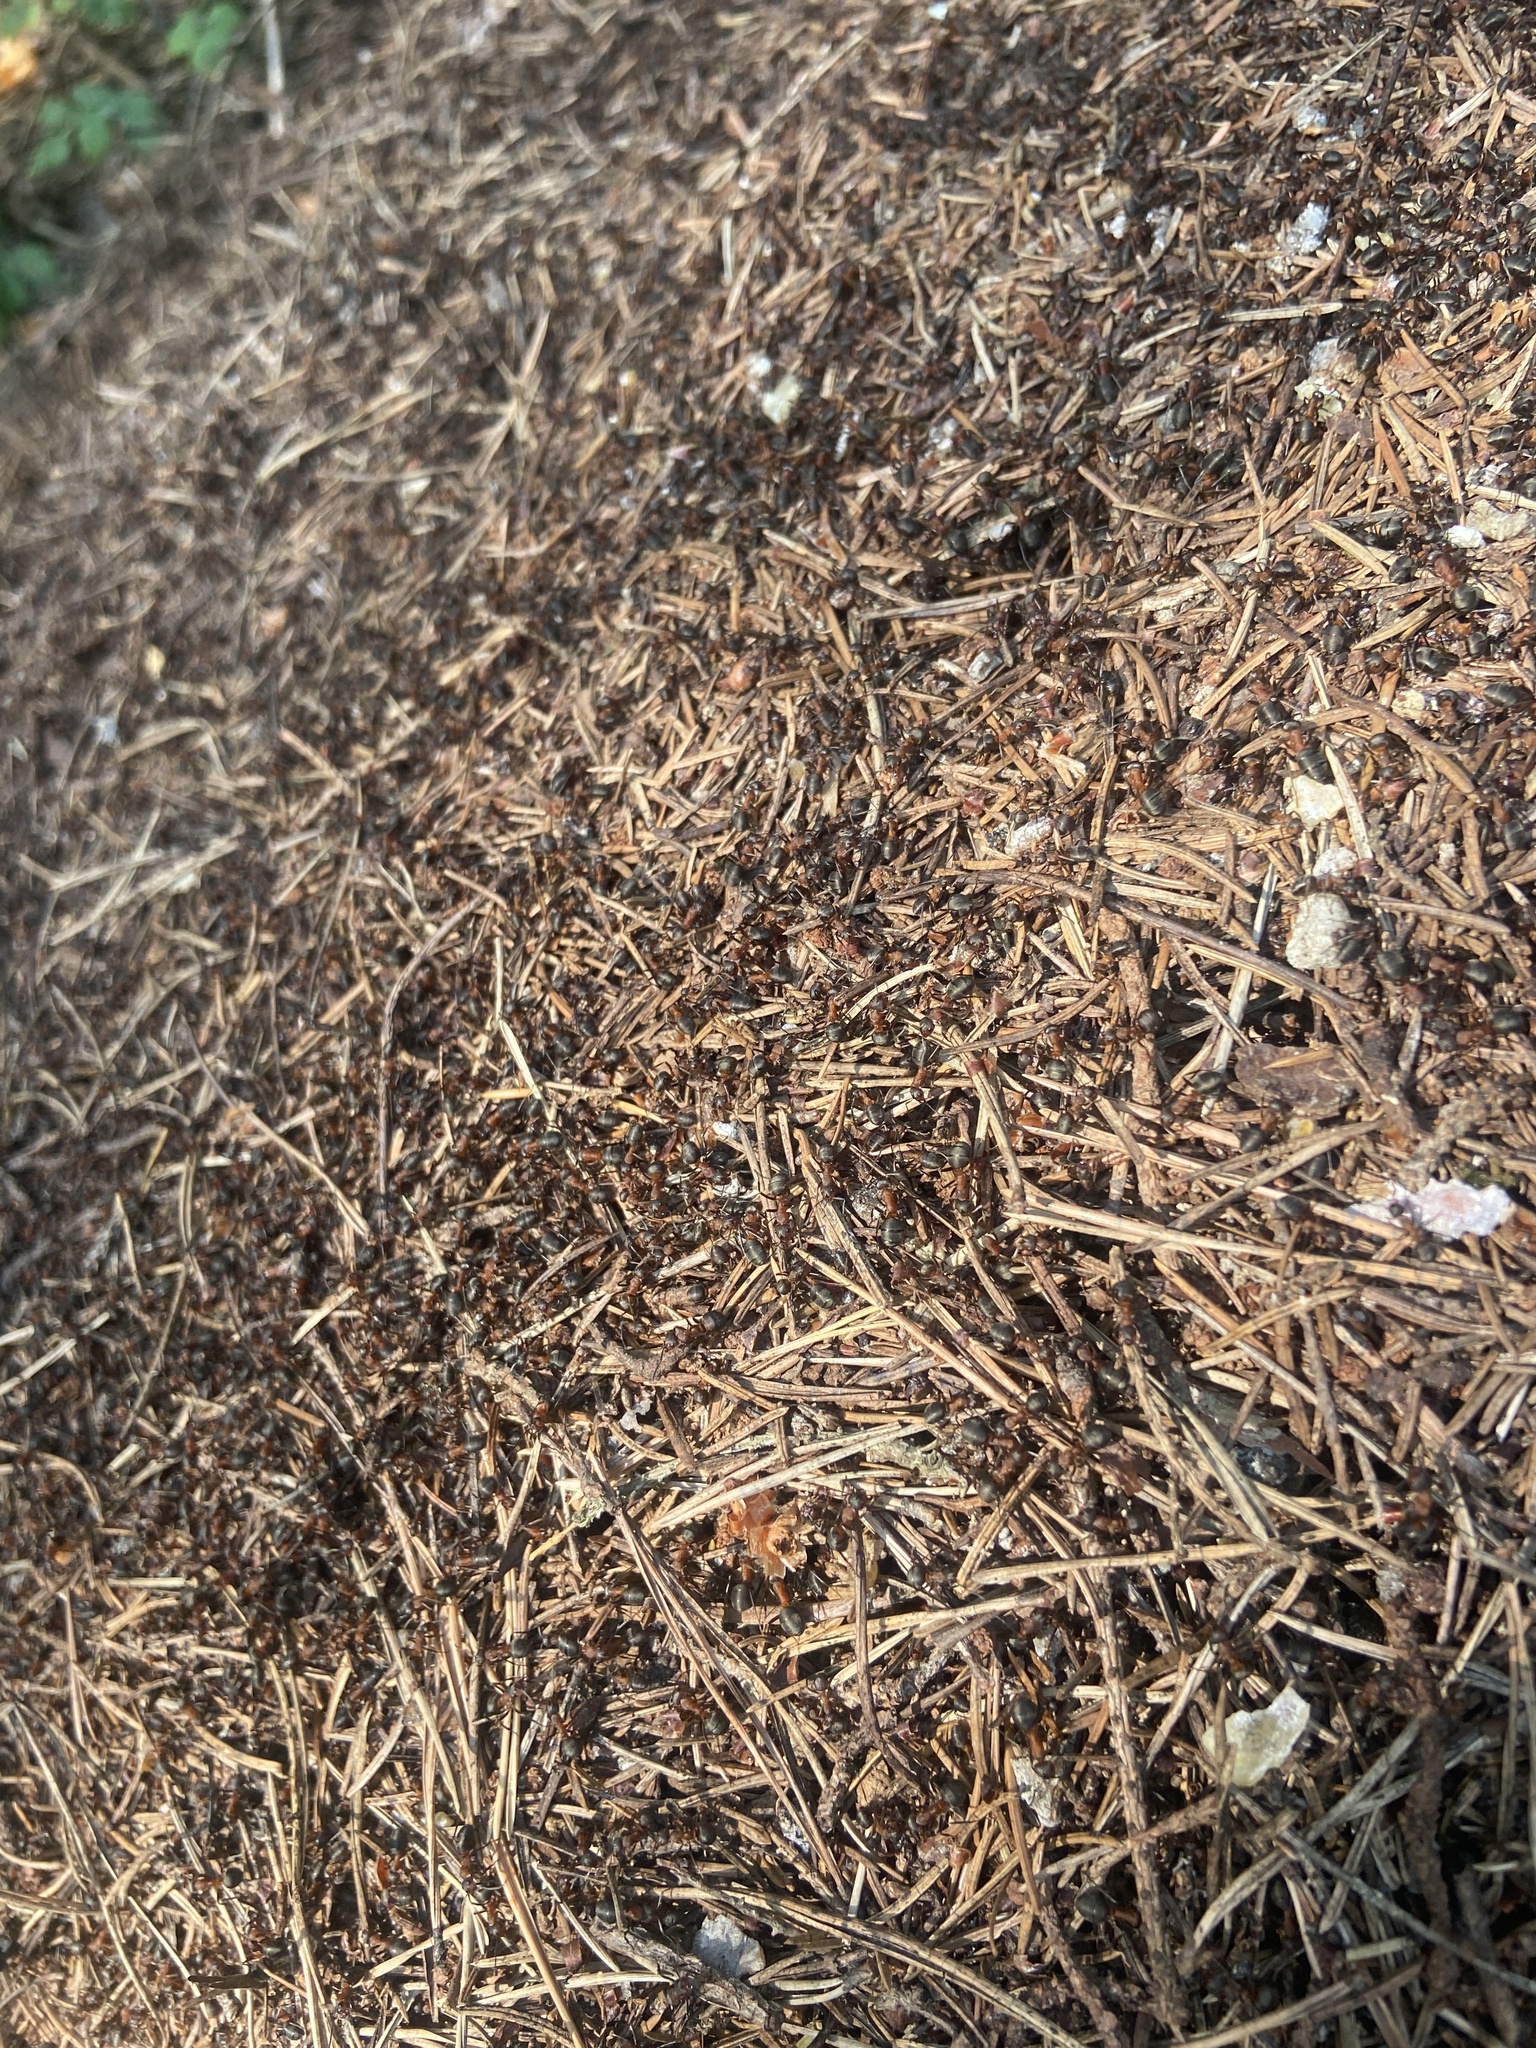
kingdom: Animalia
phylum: Arthropoda
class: Insecta
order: Hymenoptera
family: Formicidae
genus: Formica
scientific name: Formica rufa
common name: Red wood ant
